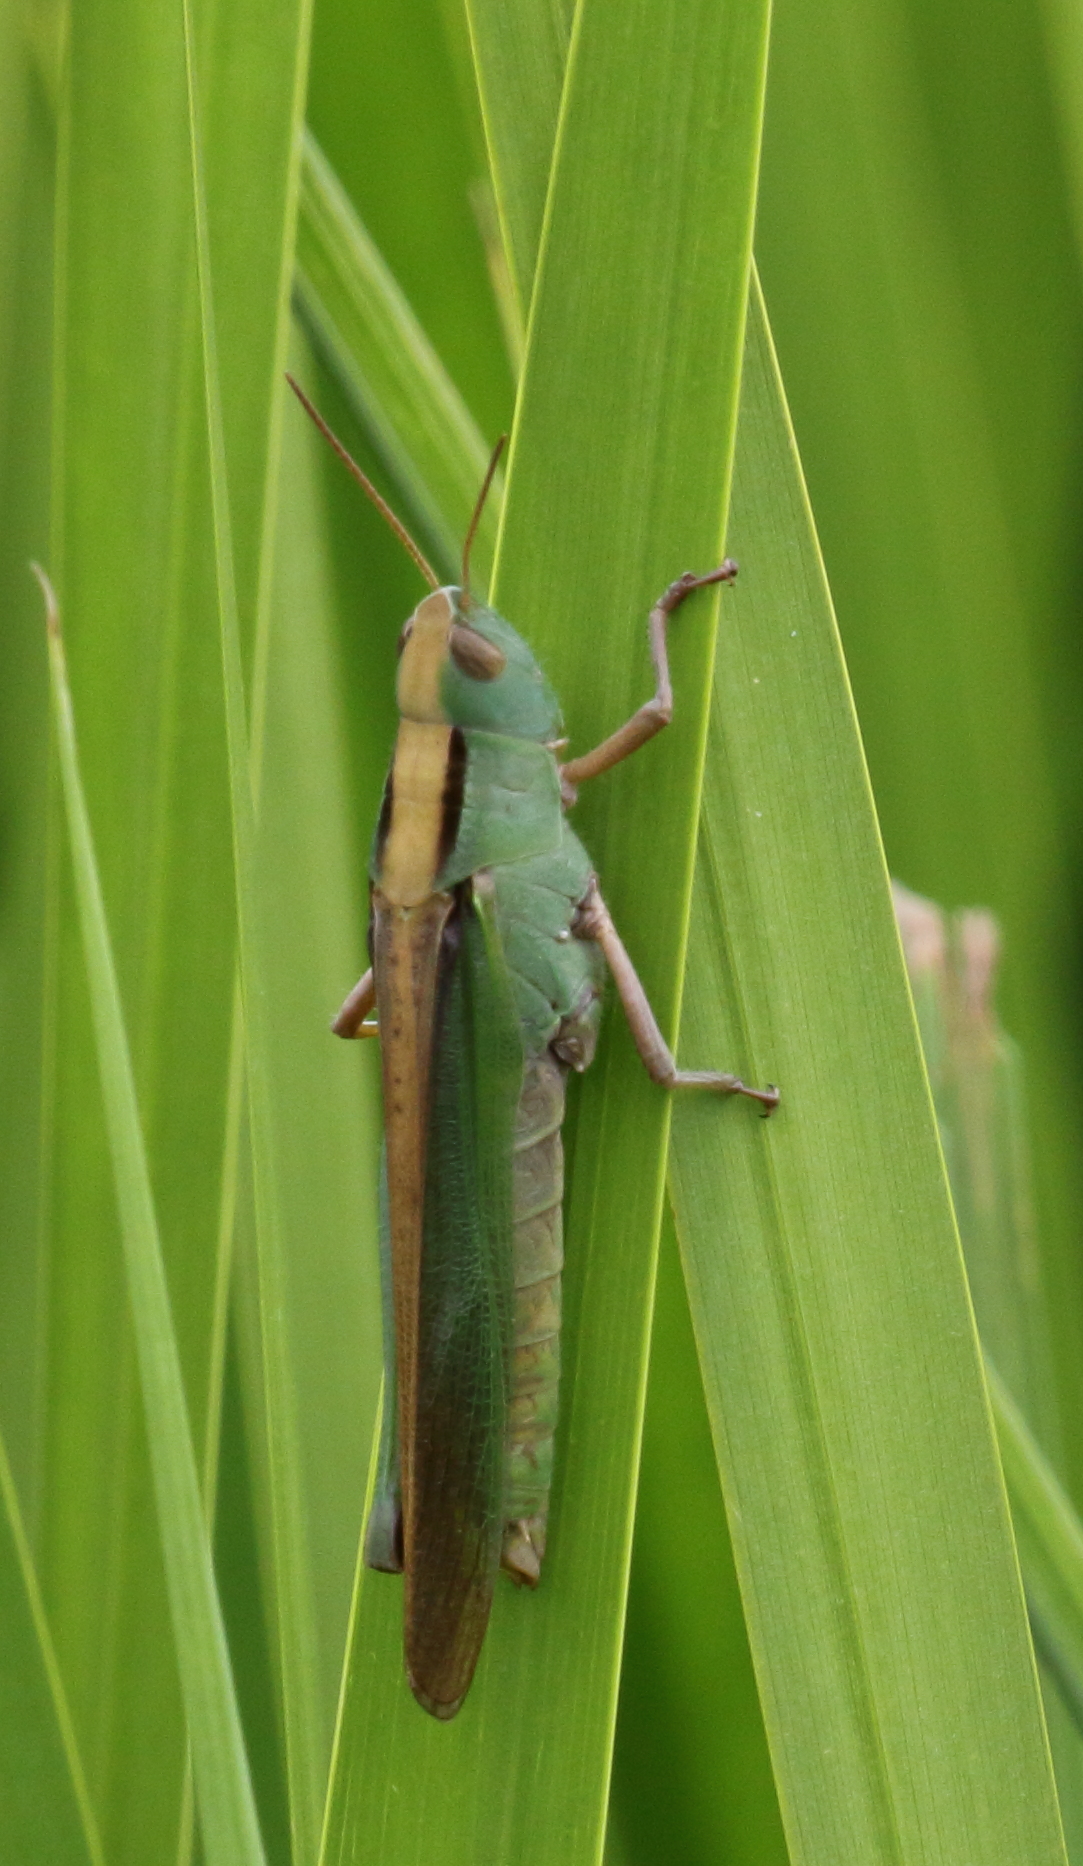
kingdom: Animalia
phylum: Arthropoda
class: Insecta
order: Orthoptera
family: Acrididae
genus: Paracinema
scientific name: Paracinema tricolor
